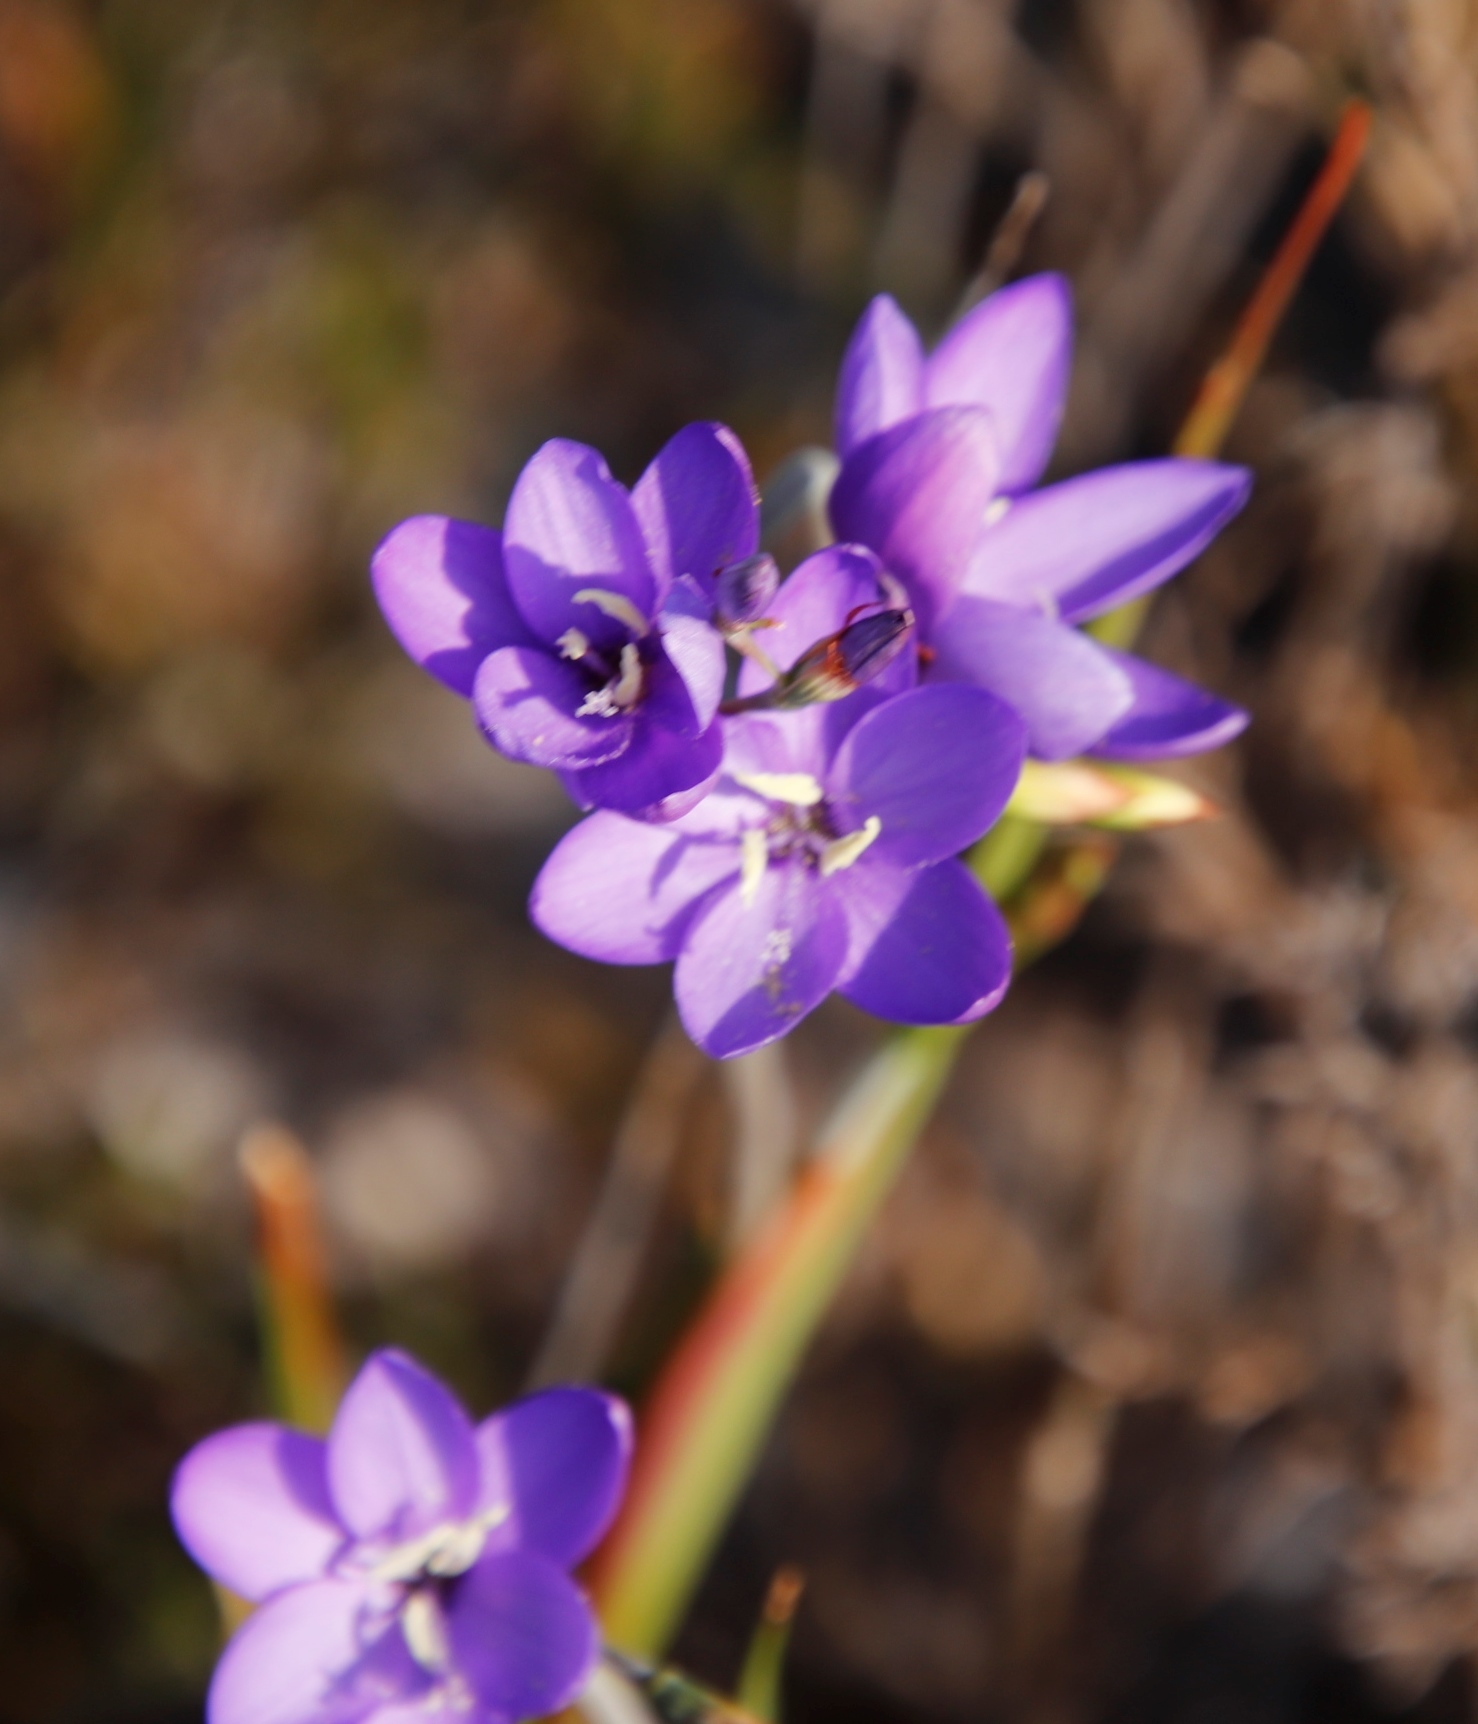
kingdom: Plantae
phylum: Tracheophyta
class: Liliopsida
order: Asparagales
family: Iridaceae
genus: Geissorhiza
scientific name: Geissorhiza aspera
